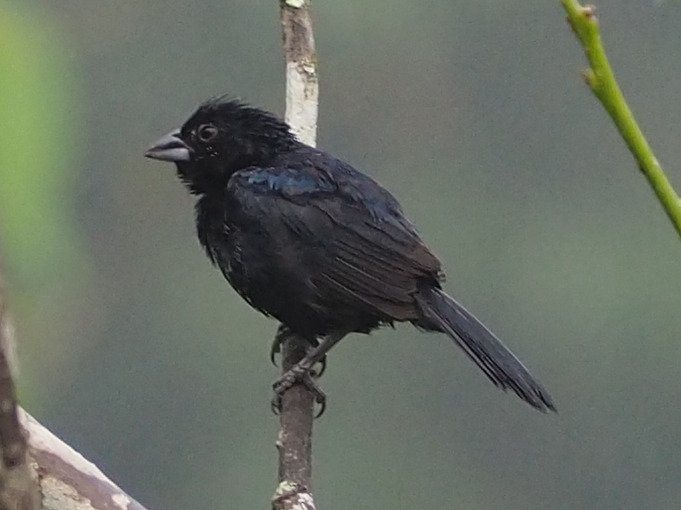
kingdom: Animalia
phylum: Chordata
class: Aves
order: Passeriformes
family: Thraupidae
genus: Volatinia
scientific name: Volatinia jacarina
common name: Blue-black grassquit
